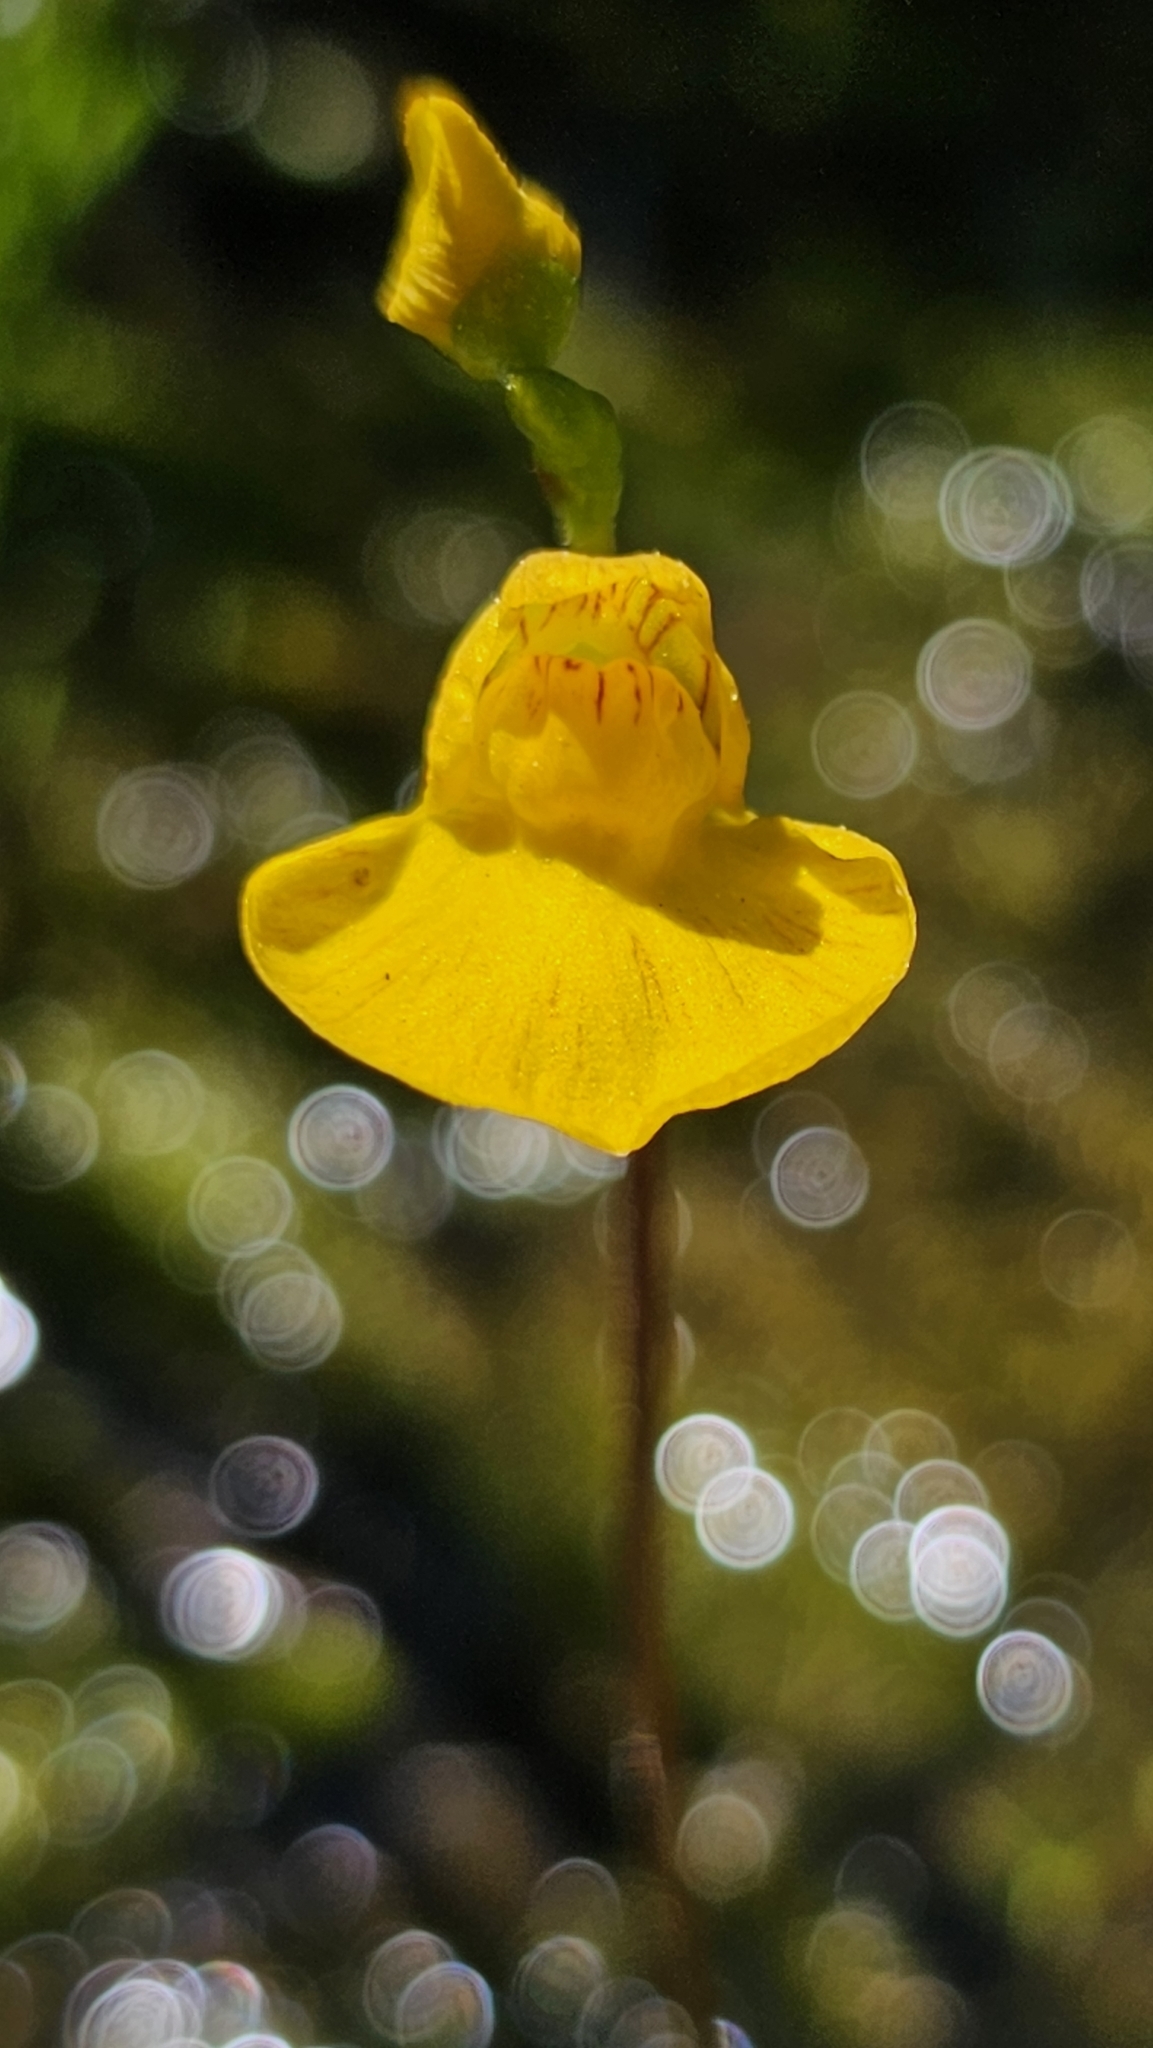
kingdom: Plantae
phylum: Tracheophyta
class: Magnoliopsida
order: Lamiales
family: Lentibulariaceae
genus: Utricularia
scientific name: Utricularia intermedia
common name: Intermediate bladderwort
